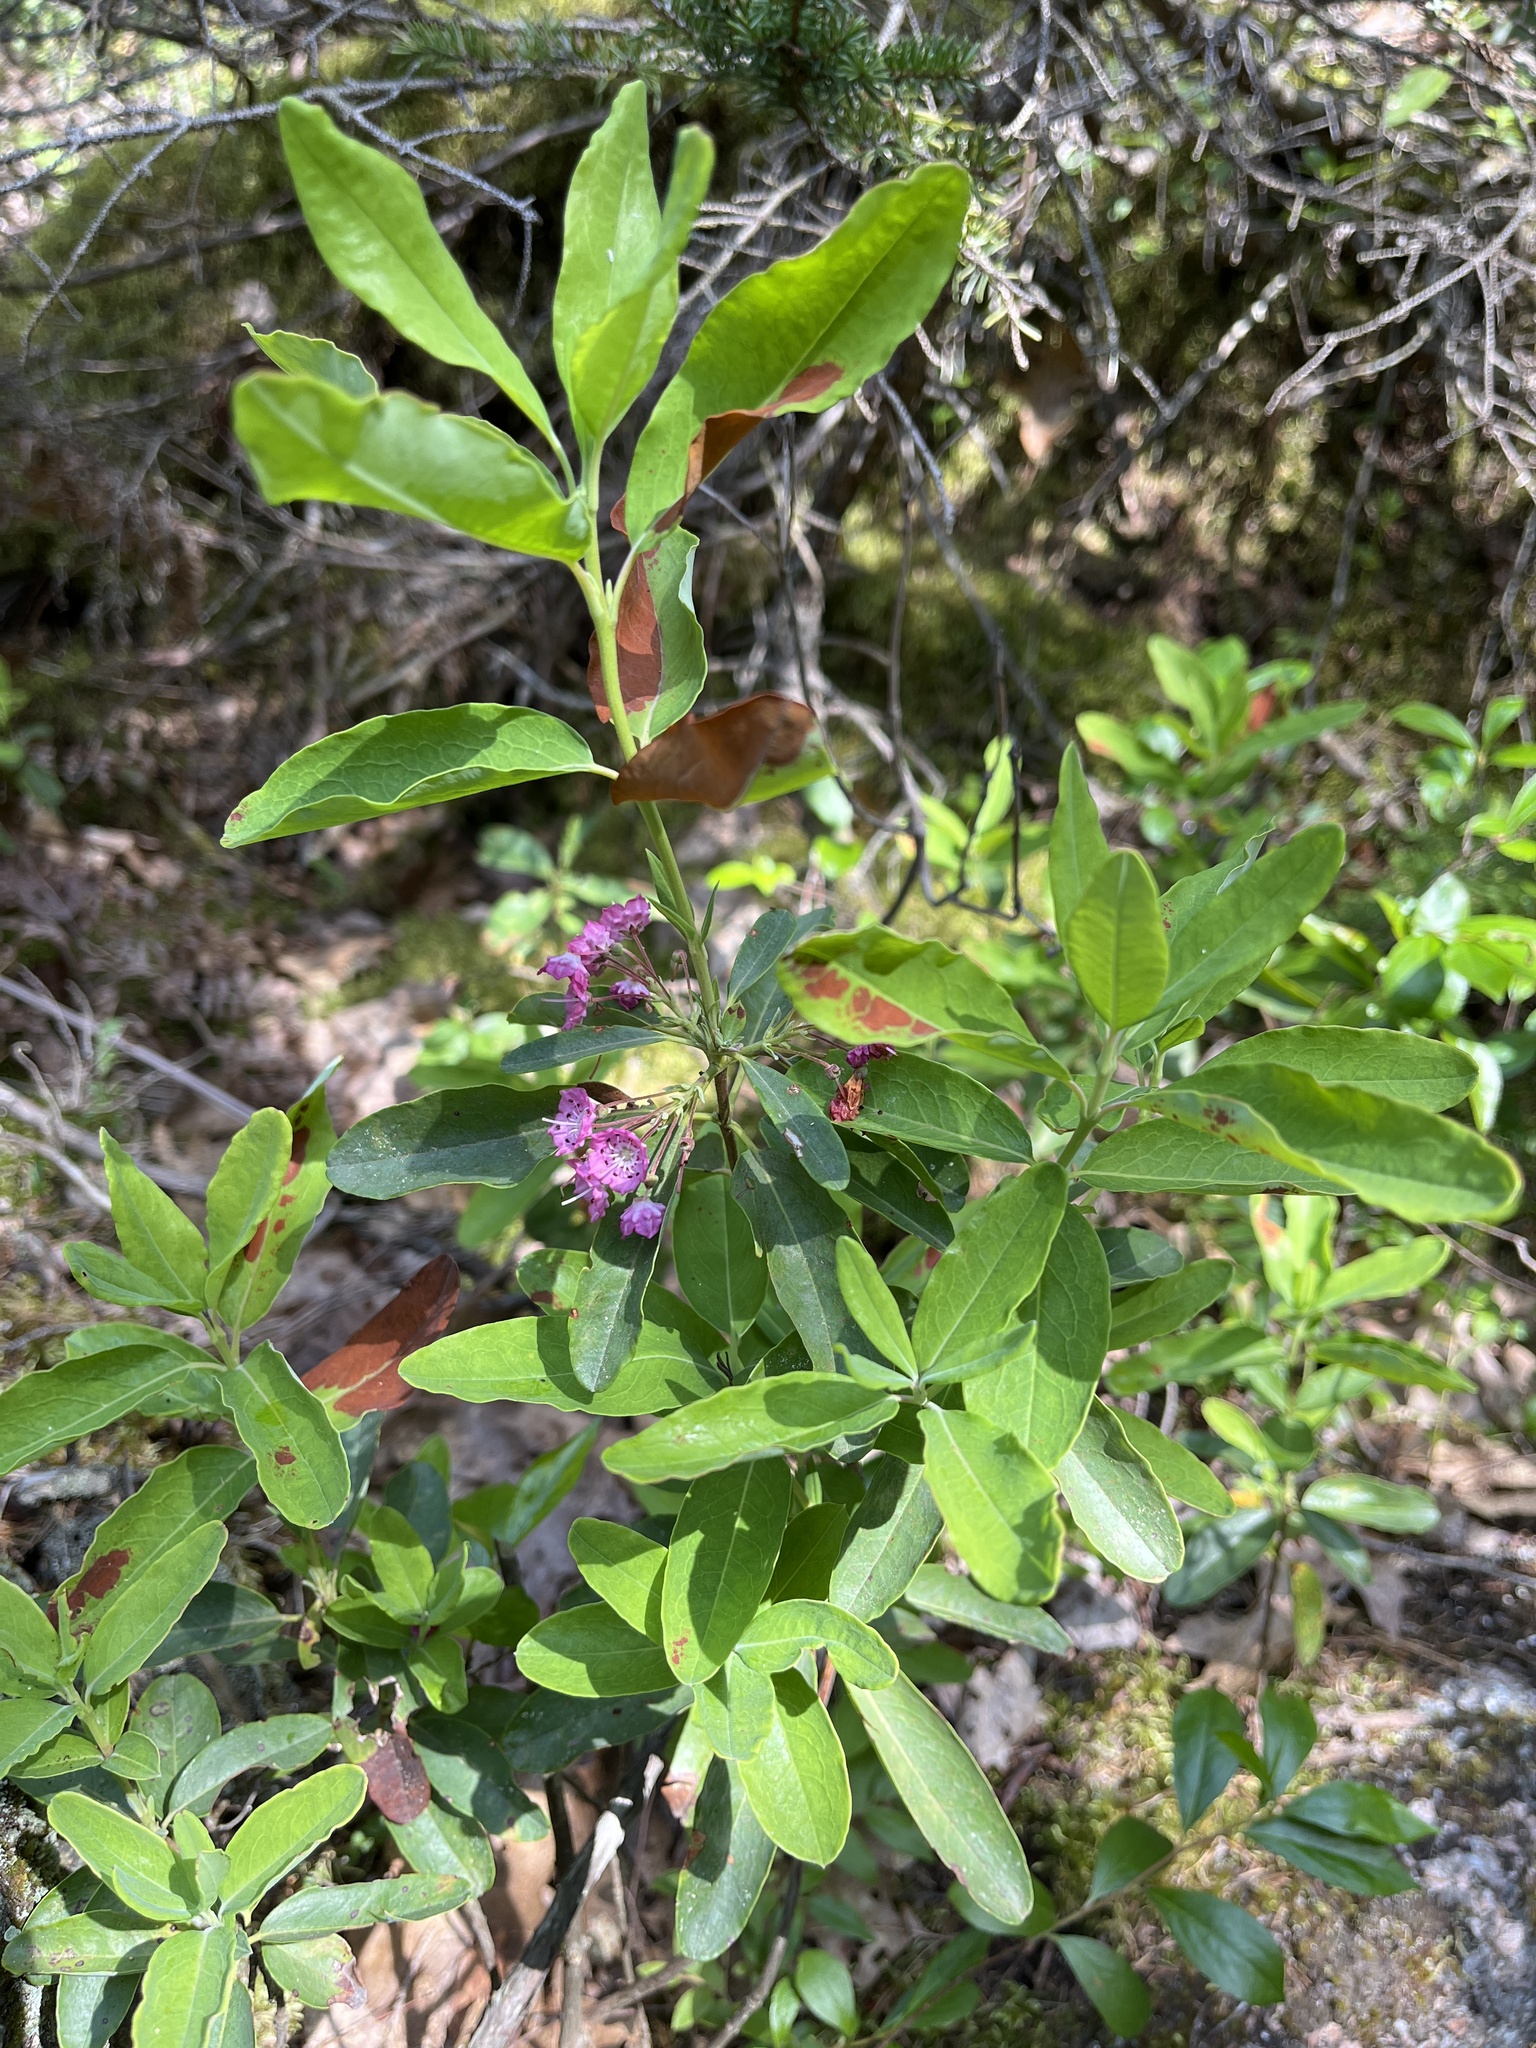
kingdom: Plantae
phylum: Tracheophyta
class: Magnoliopsida
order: Ericales
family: Ericaceae
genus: Kalmia
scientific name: Kalmia angustifolia
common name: Sheep-laurel
